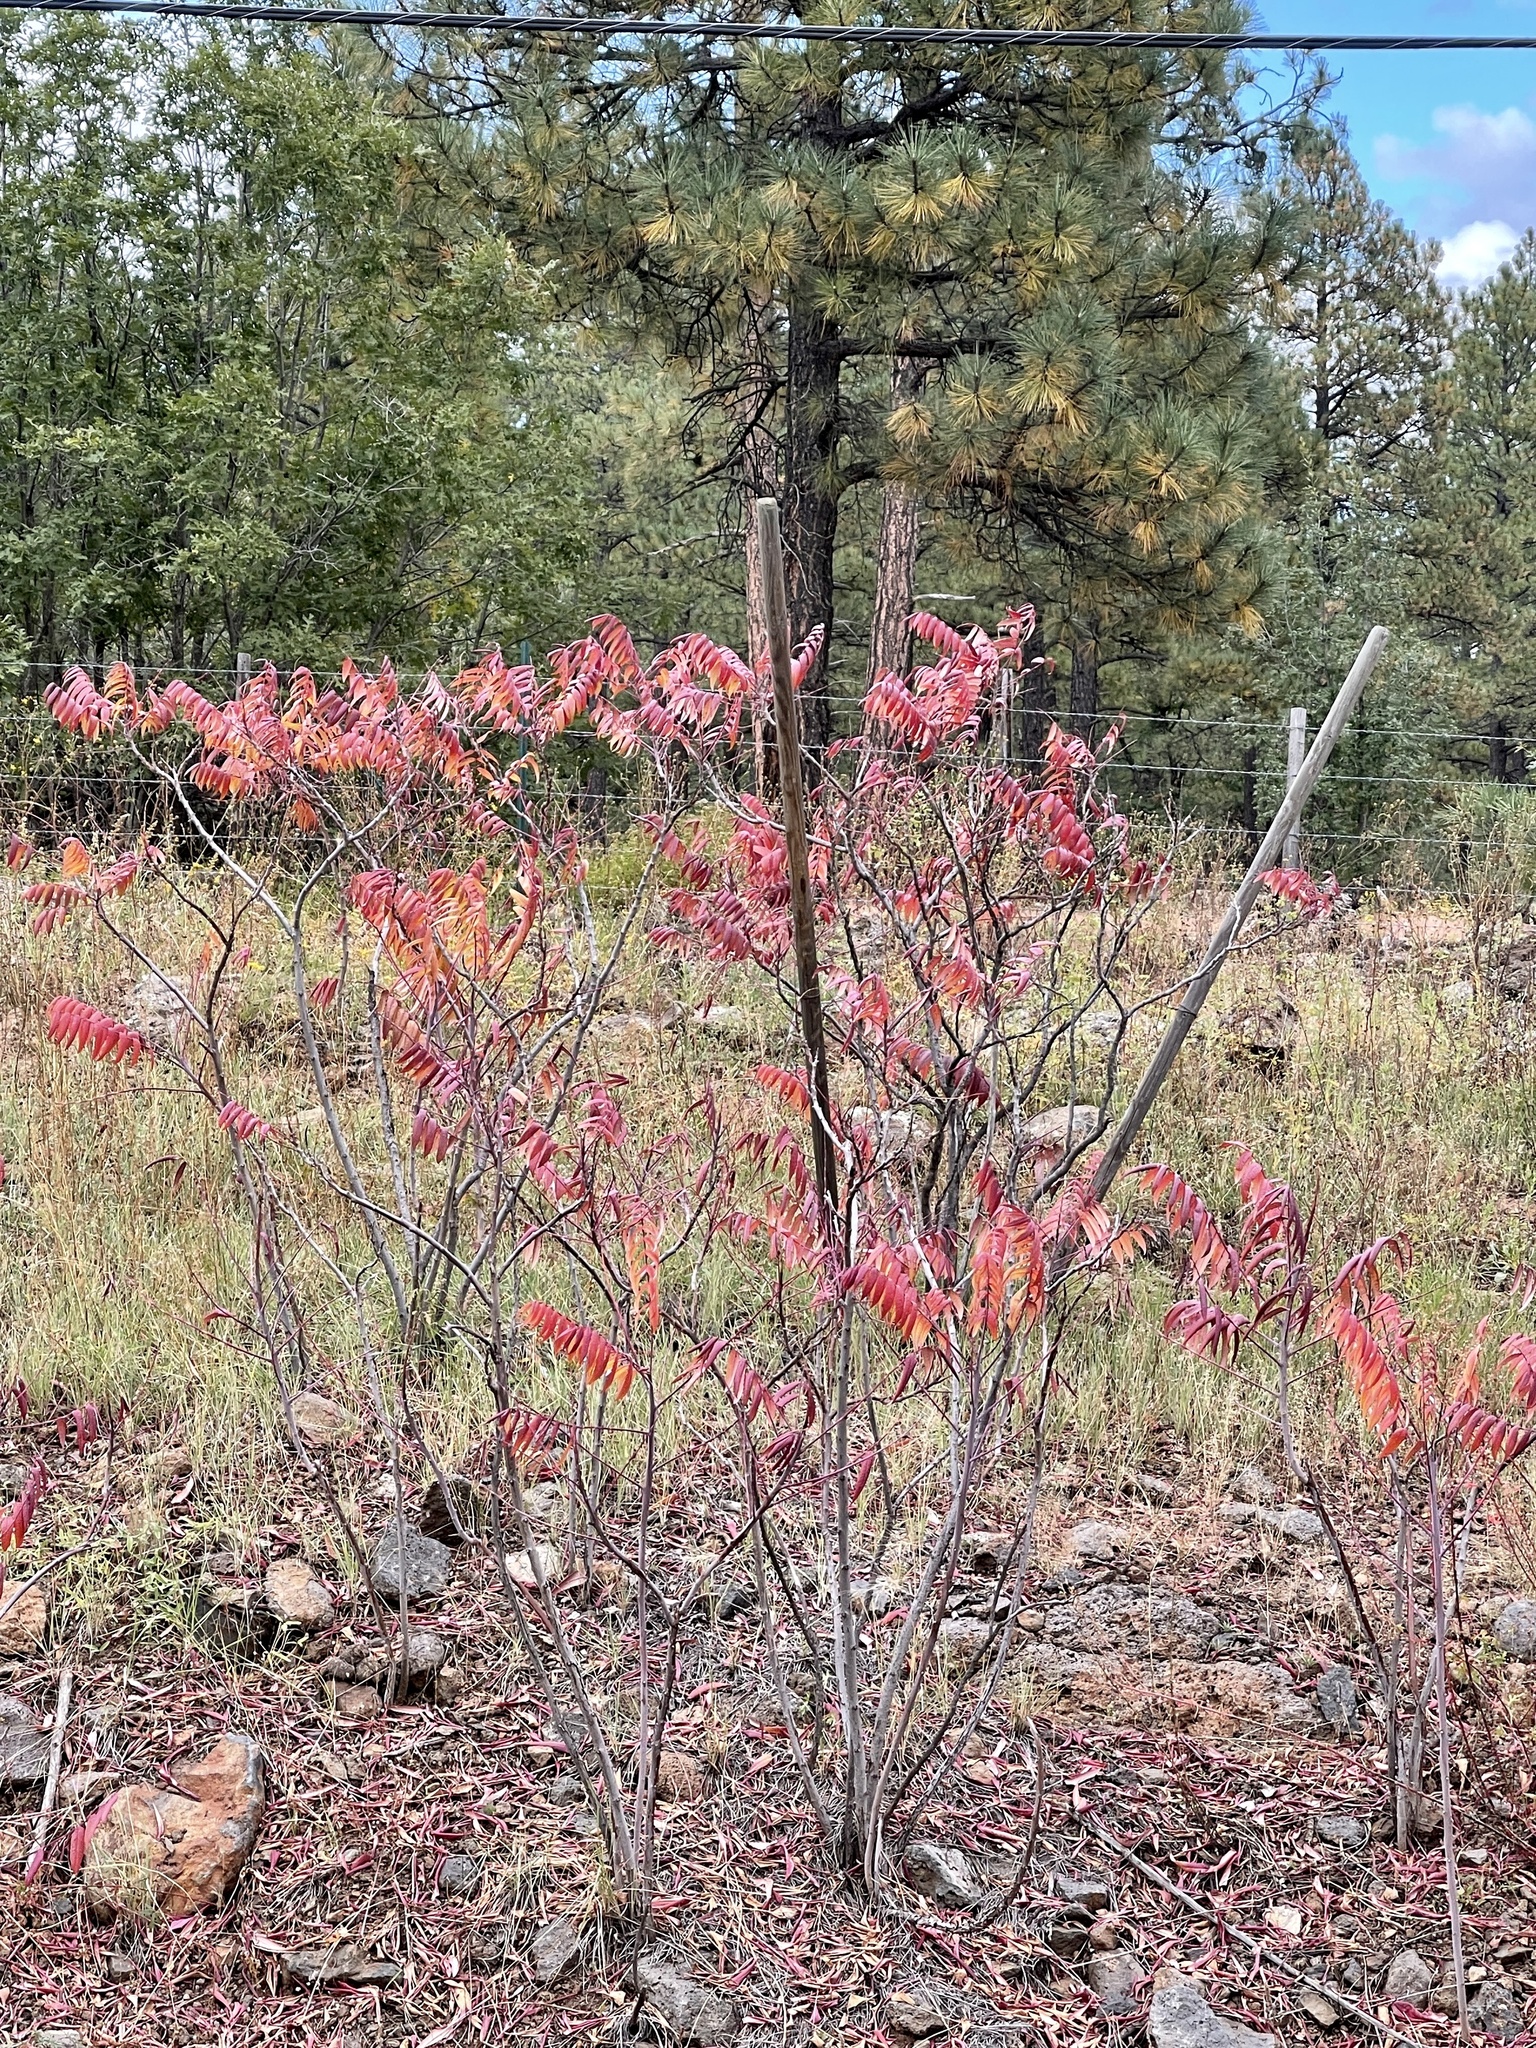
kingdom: Plantae
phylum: Tracheophyta
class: Magnoliopsida
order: Sapindales
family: Anacardiaceae
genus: Rhus
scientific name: Rhus glabra
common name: Scarlet sumac
